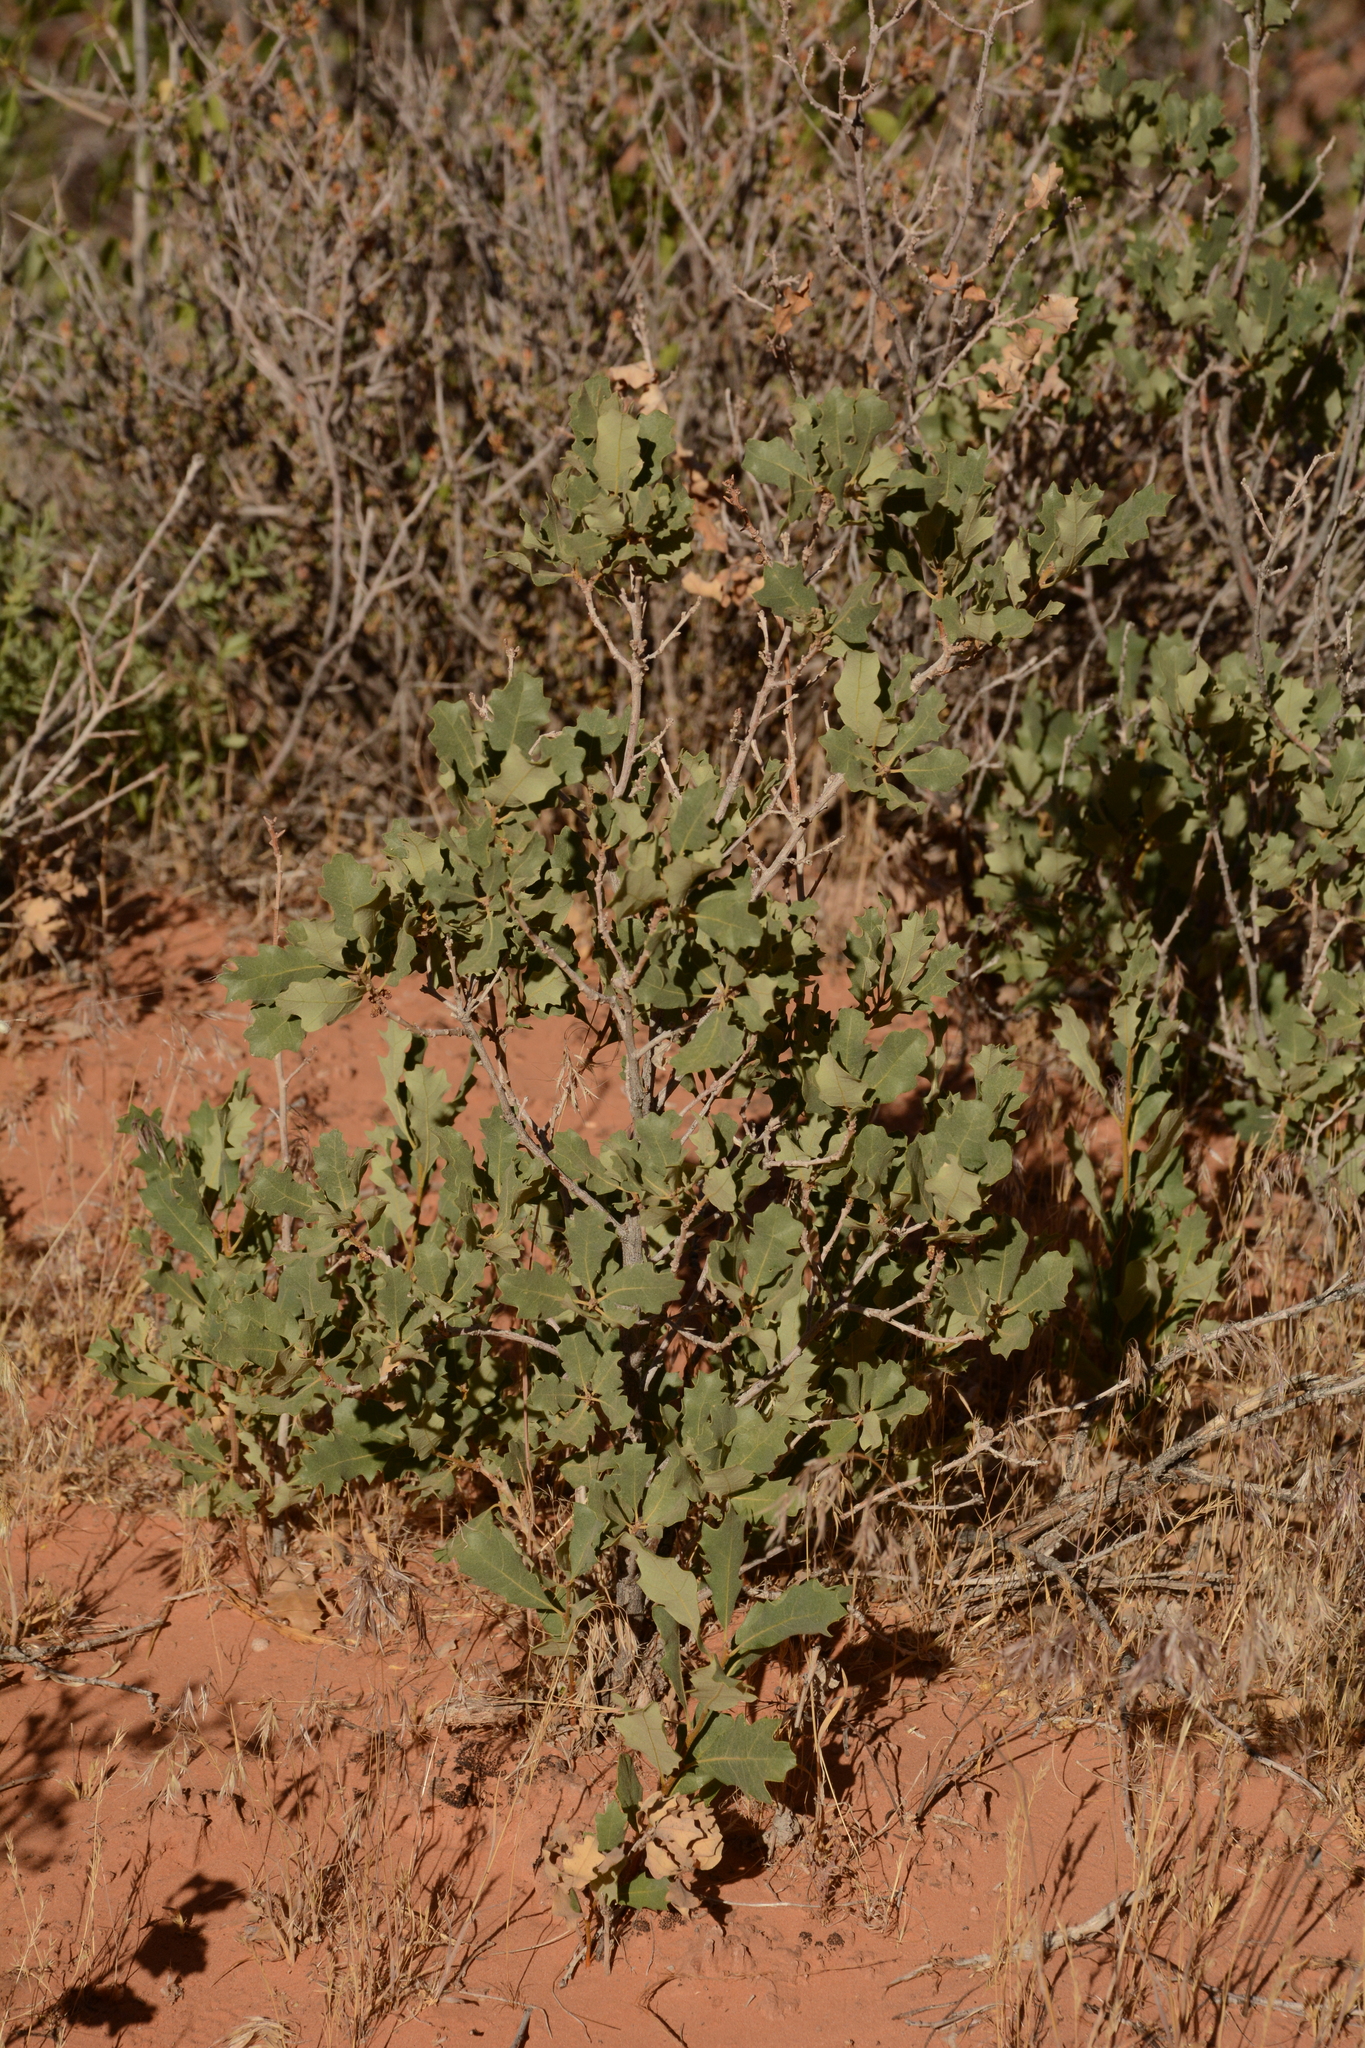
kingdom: Plantae
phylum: Tracheophyta
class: Magnoliopsida
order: Fagales
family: Fagaceae
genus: Quercus
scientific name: Quercus welshii
